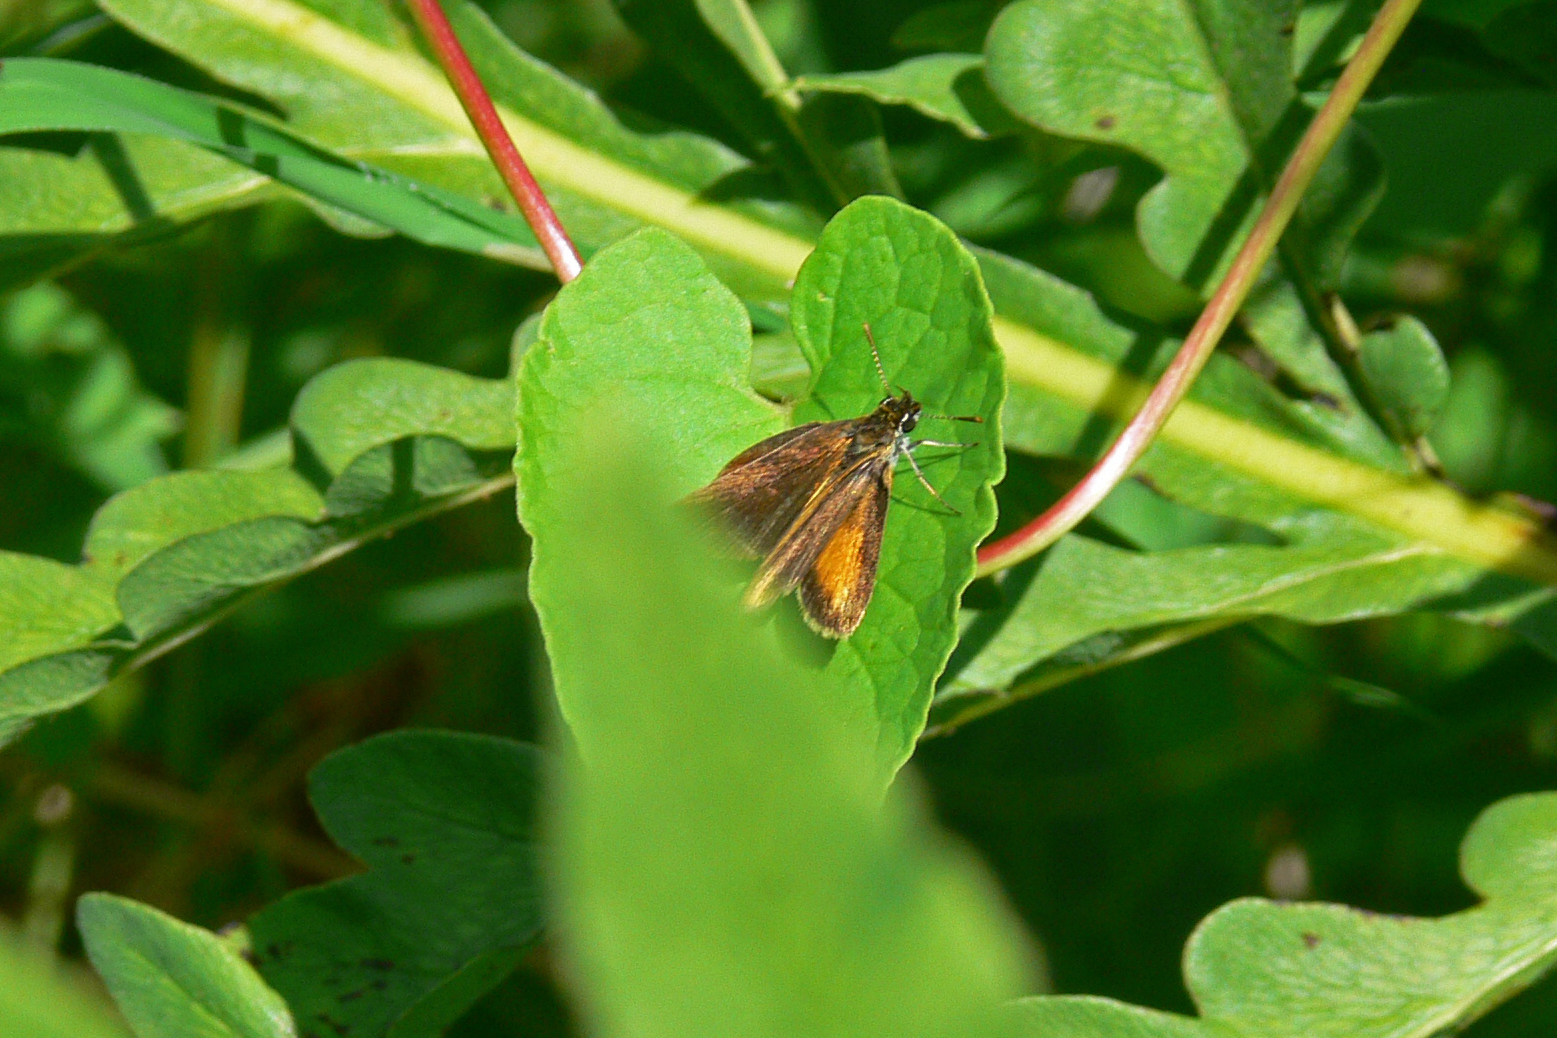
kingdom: Animalia
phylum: Arthropoda
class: Insecta
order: Lepidoptera
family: Hesperiidae
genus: Ancyloxypha
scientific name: Ancyloxypha numitor
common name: Least skipper
